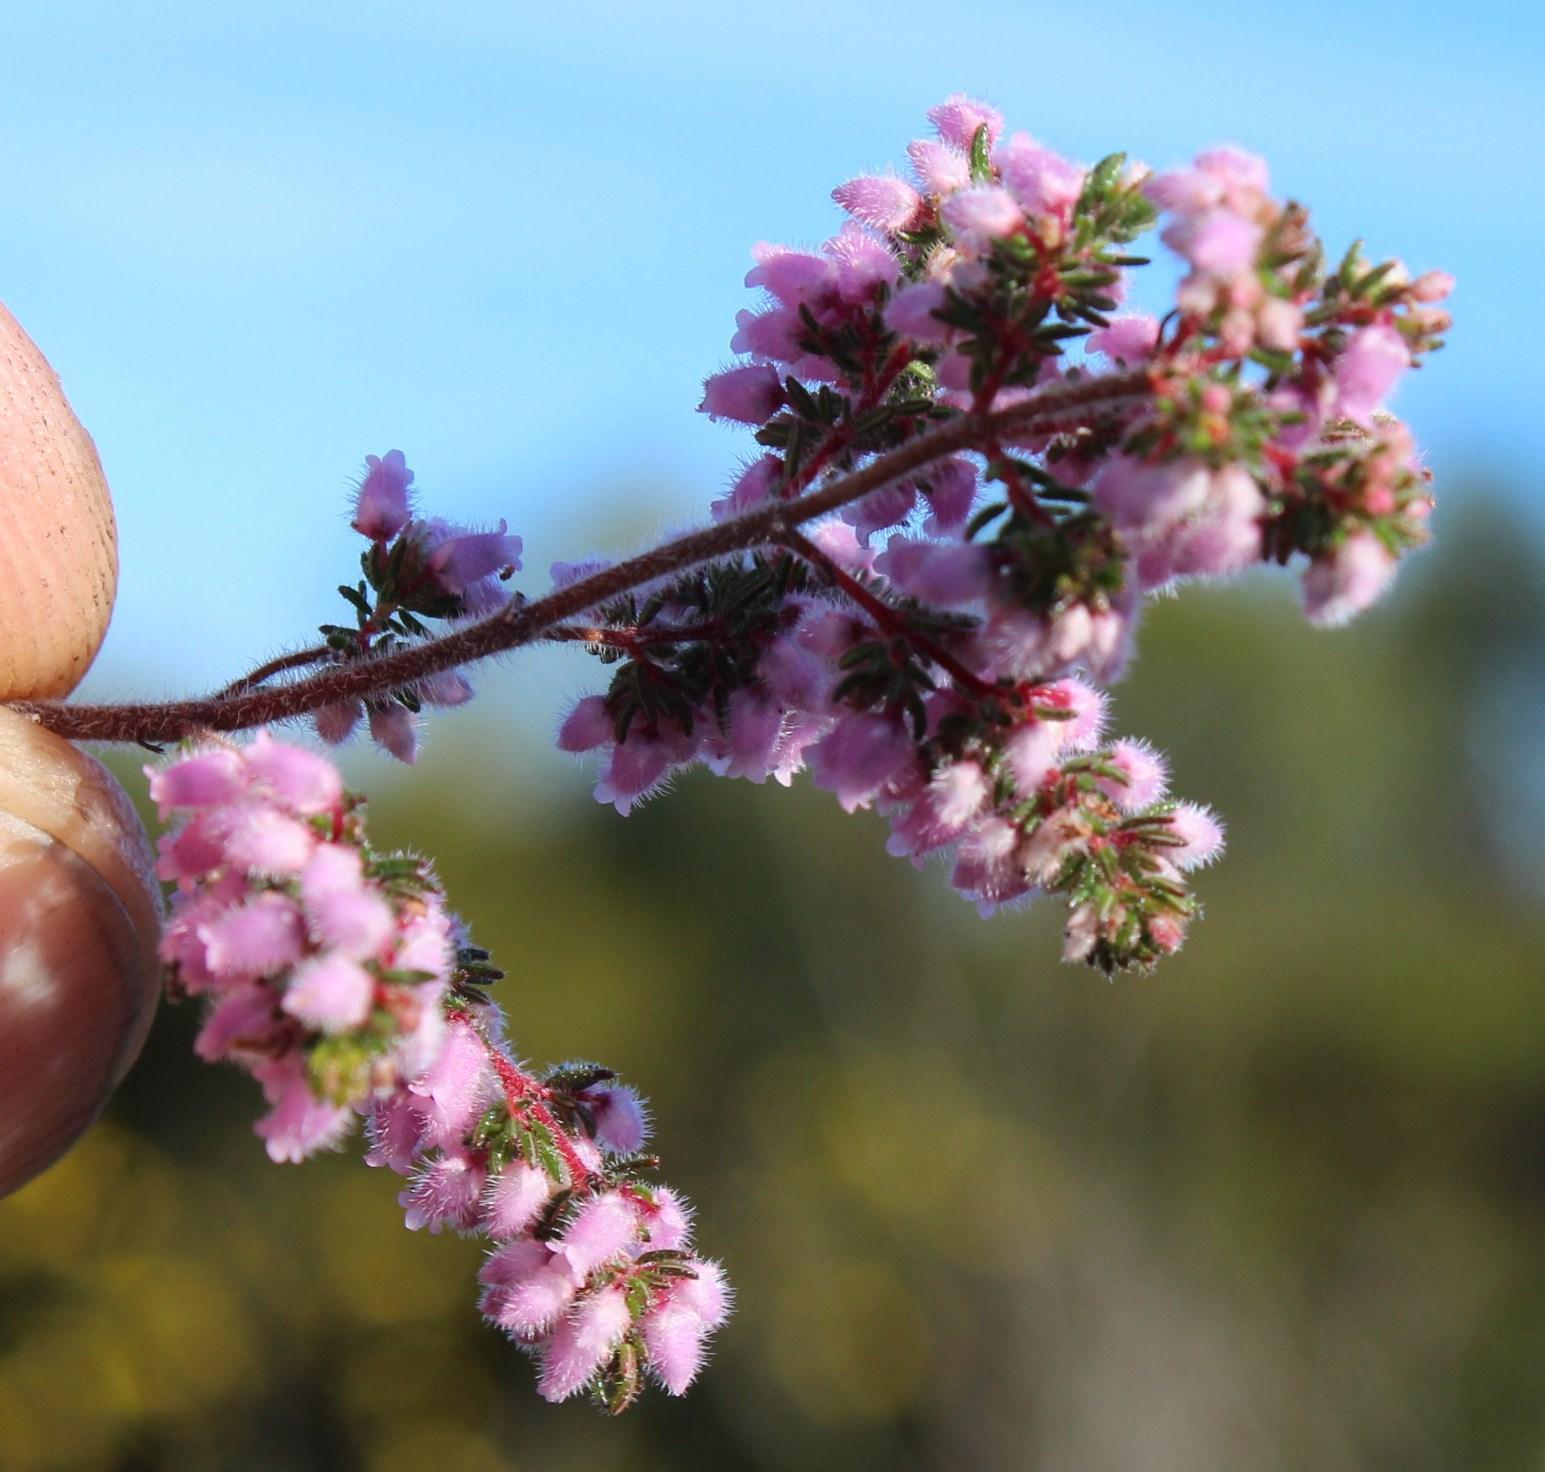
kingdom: Plantae
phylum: Tracheophyta
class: Magnoliopsida
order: Ericales
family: Ericaceae
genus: Erica
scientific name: Erica parviflora
